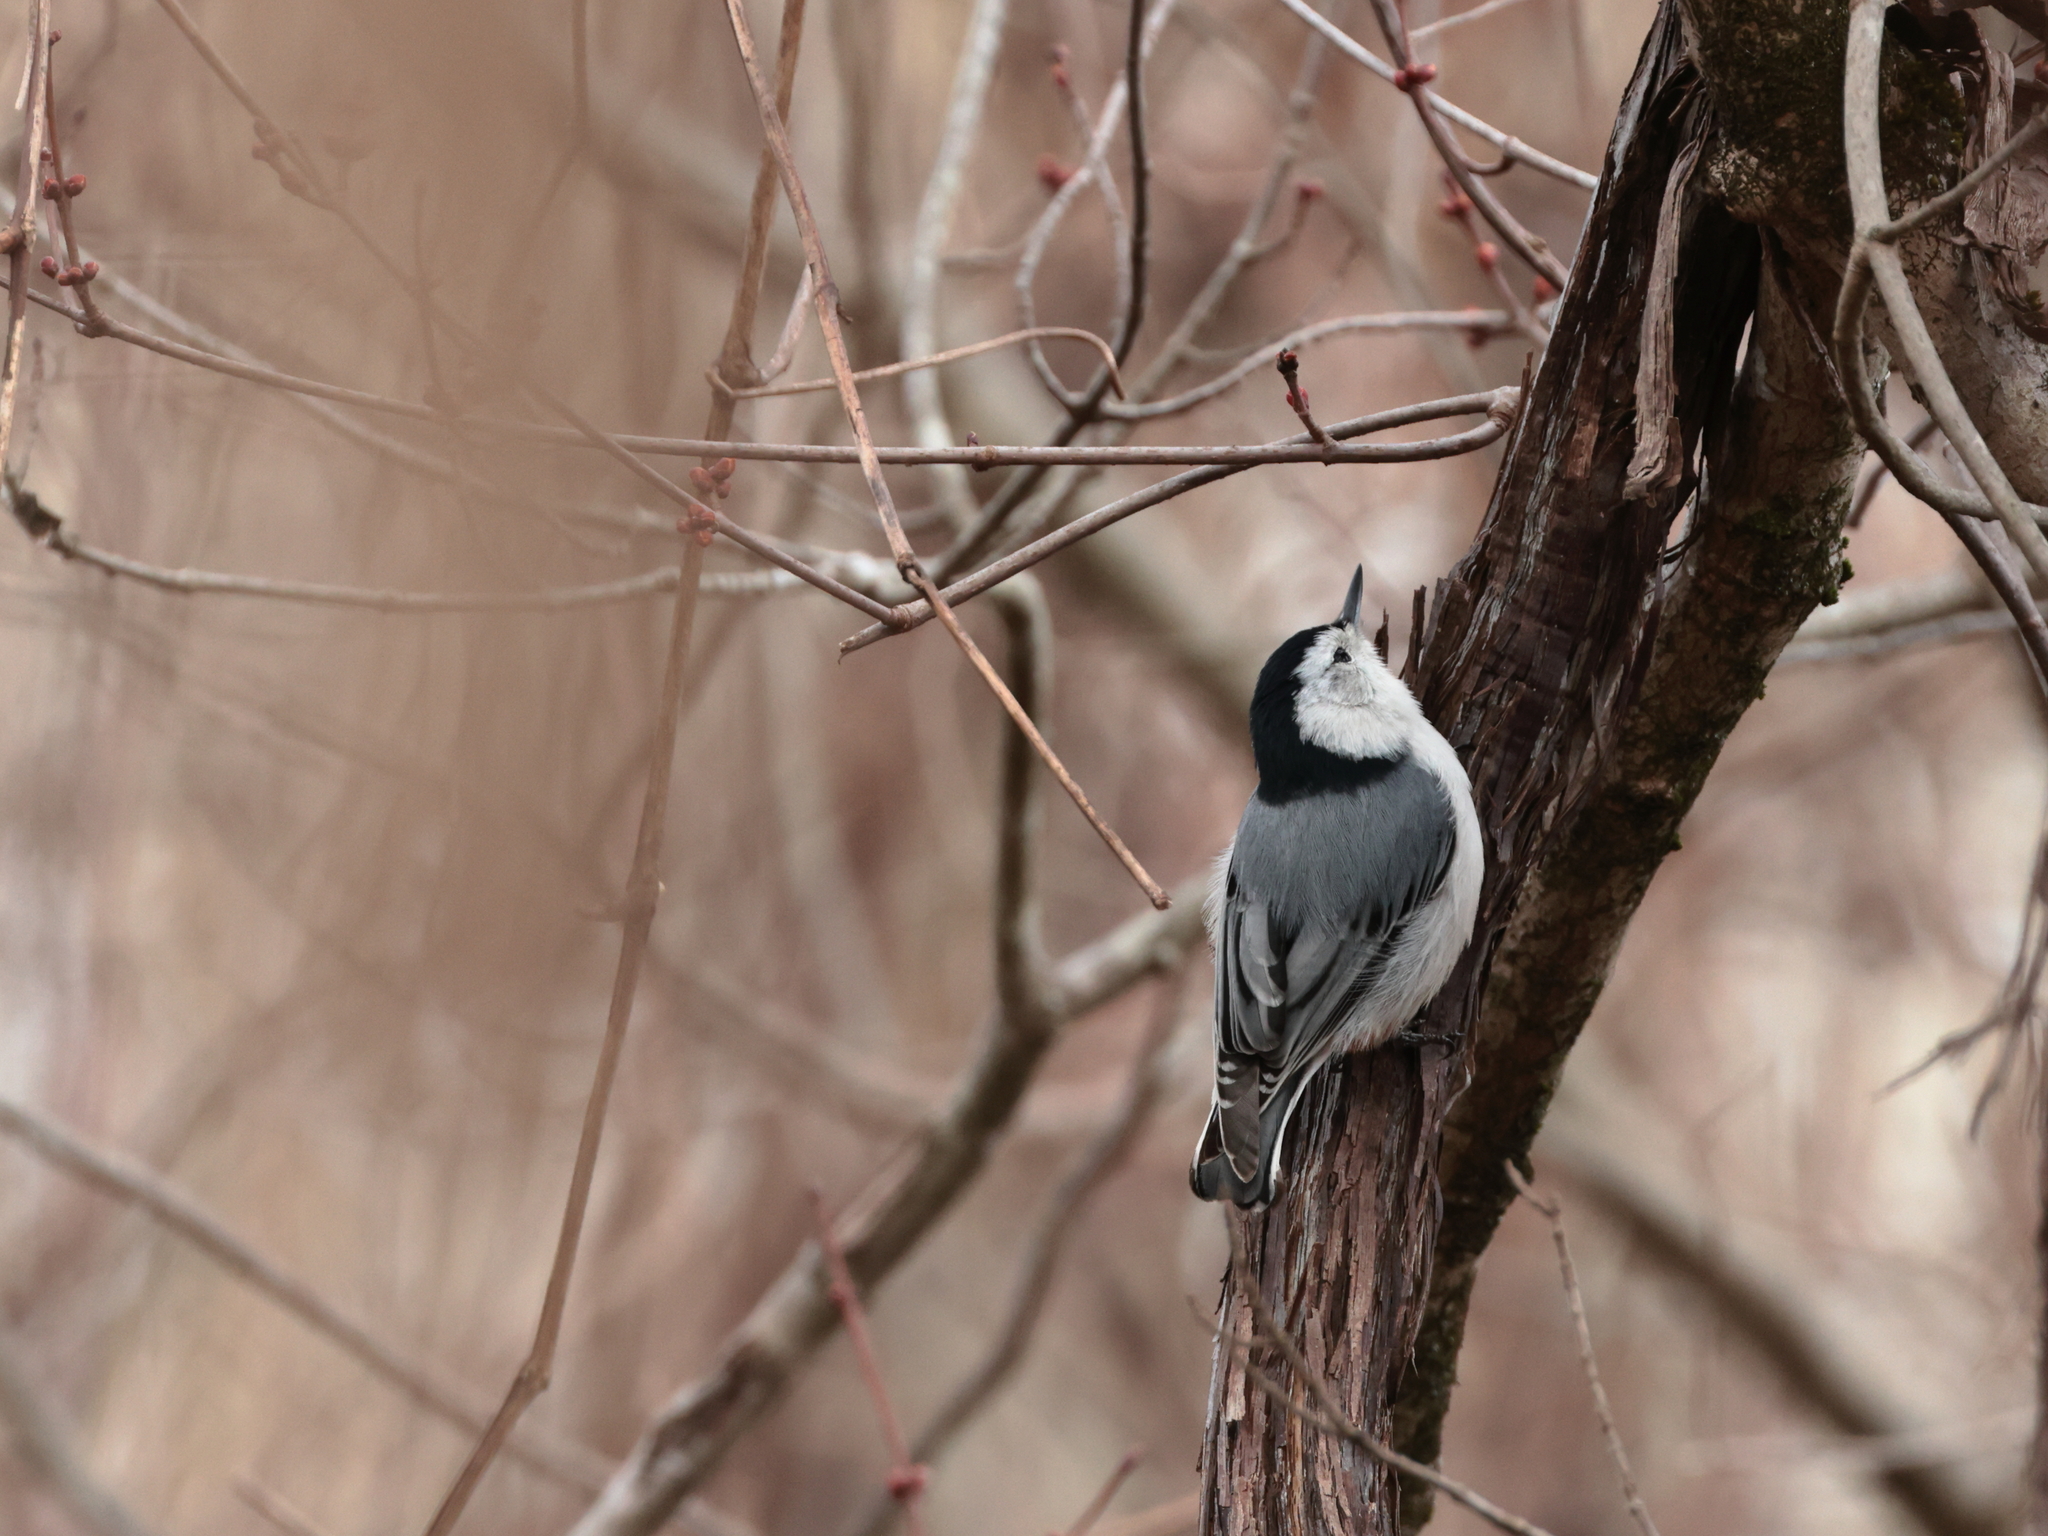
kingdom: Animalia
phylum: Chordata
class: Aves
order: Passeriformes
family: Sittidae
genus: Sitta
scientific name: Sitta carolinensis
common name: White-breasted nuthatch
